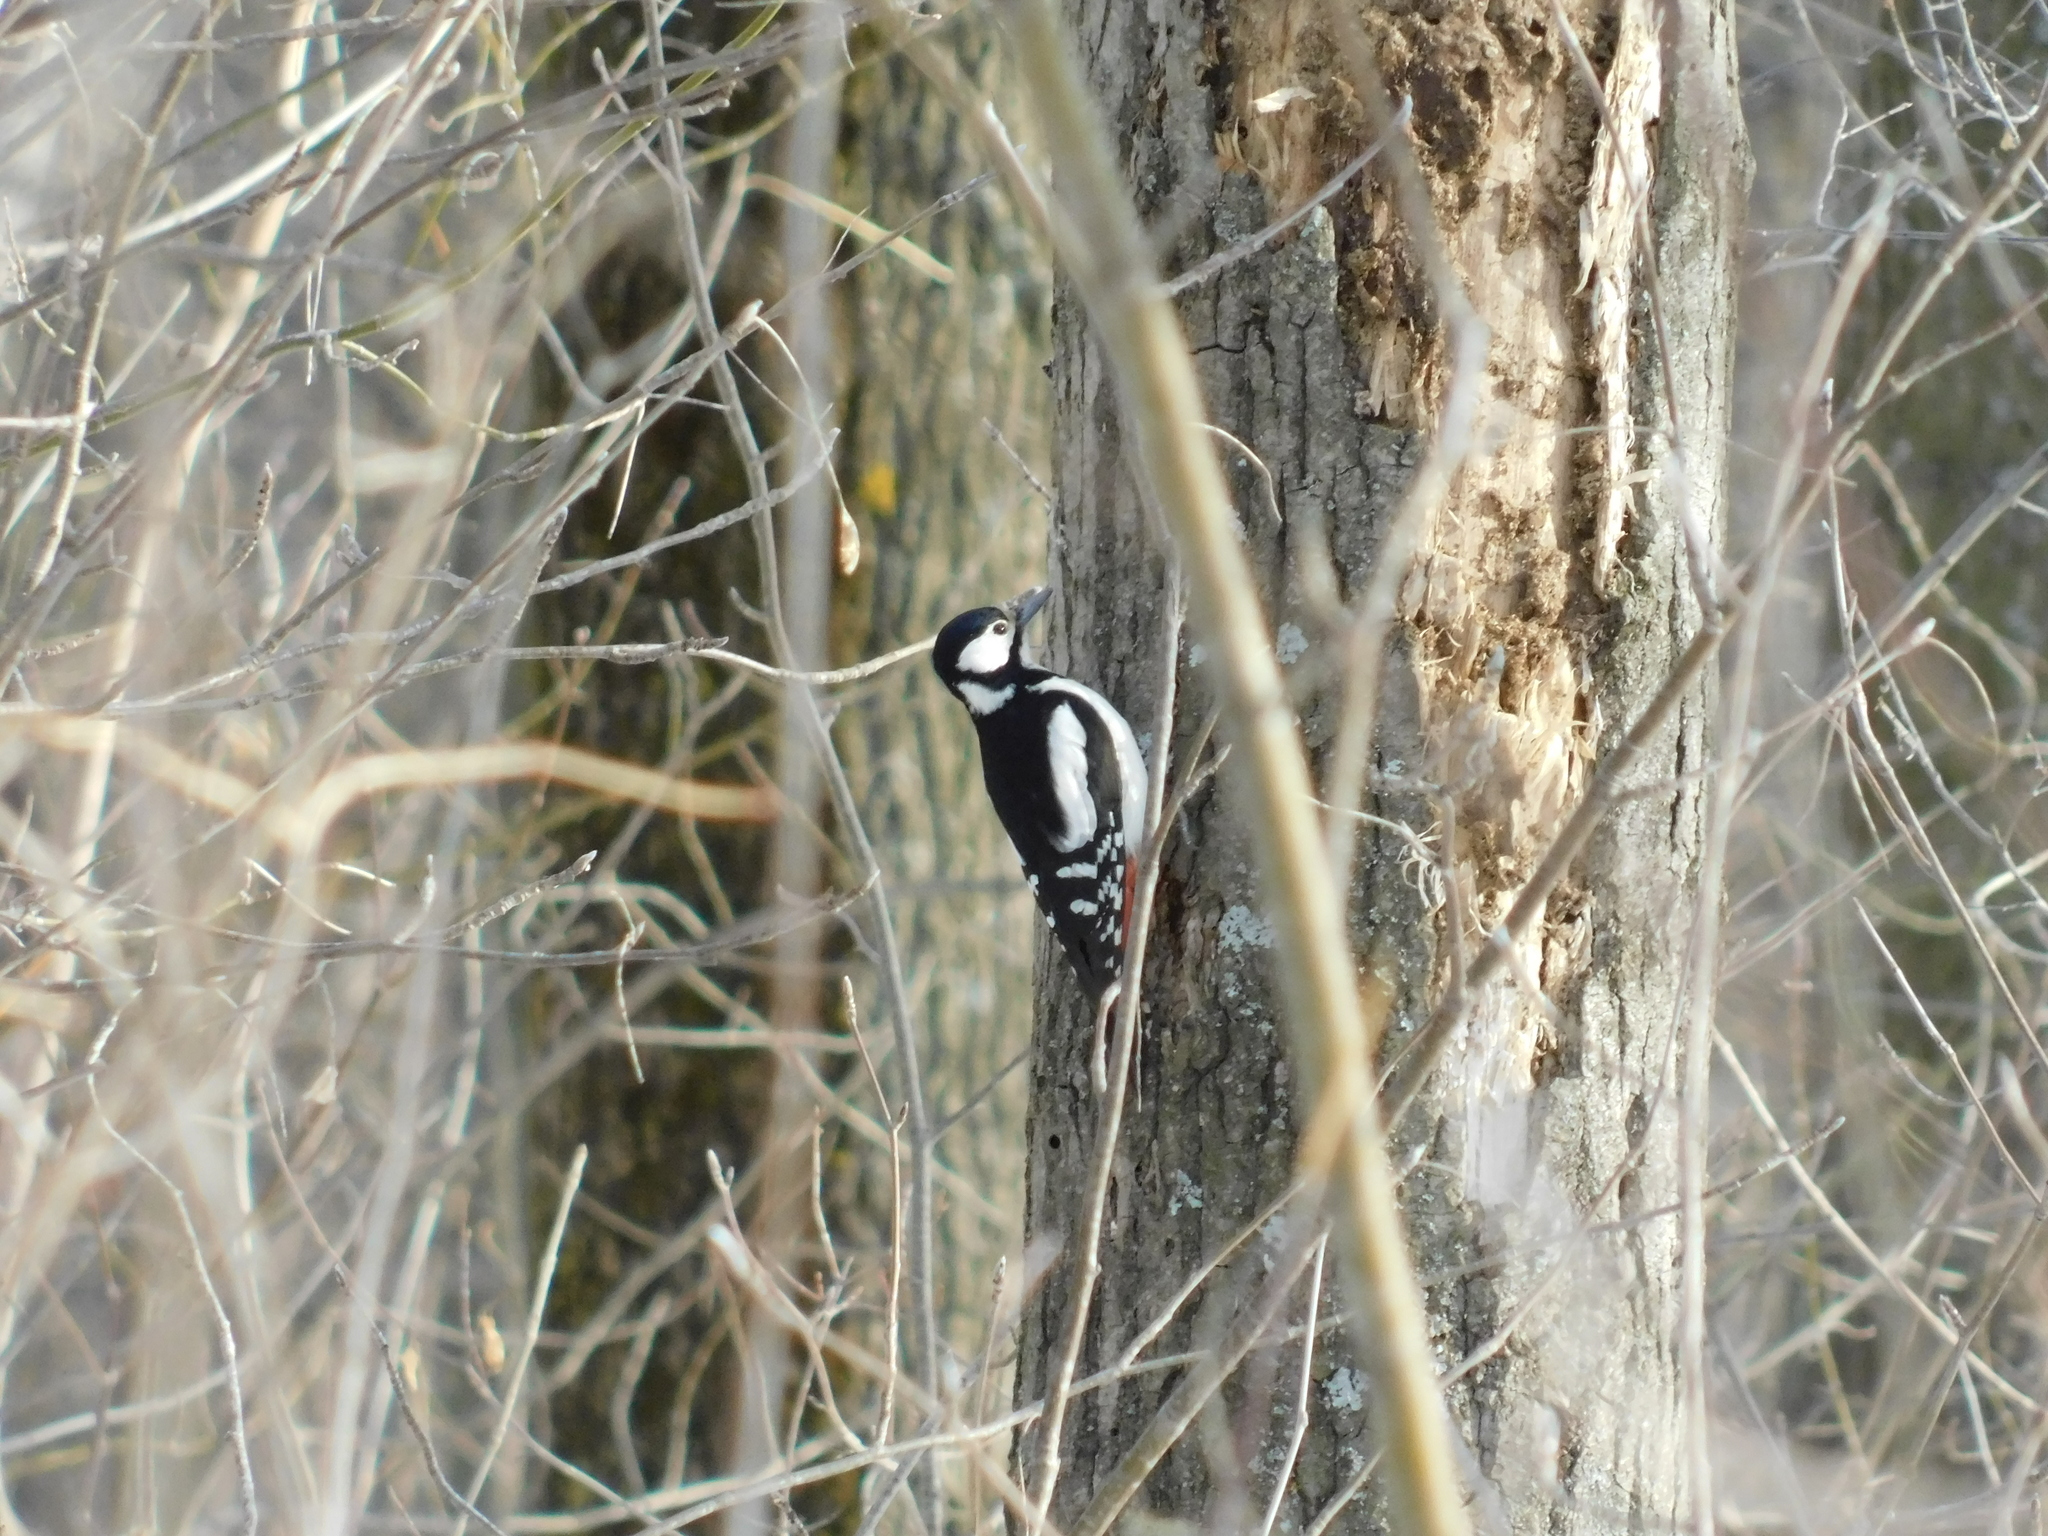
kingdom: Animalia
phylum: Chordata
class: Aves
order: Piciformes
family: Picidae
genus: Dendrocopos
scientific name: Dendrocopos major
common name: Great spotted woodpecker
